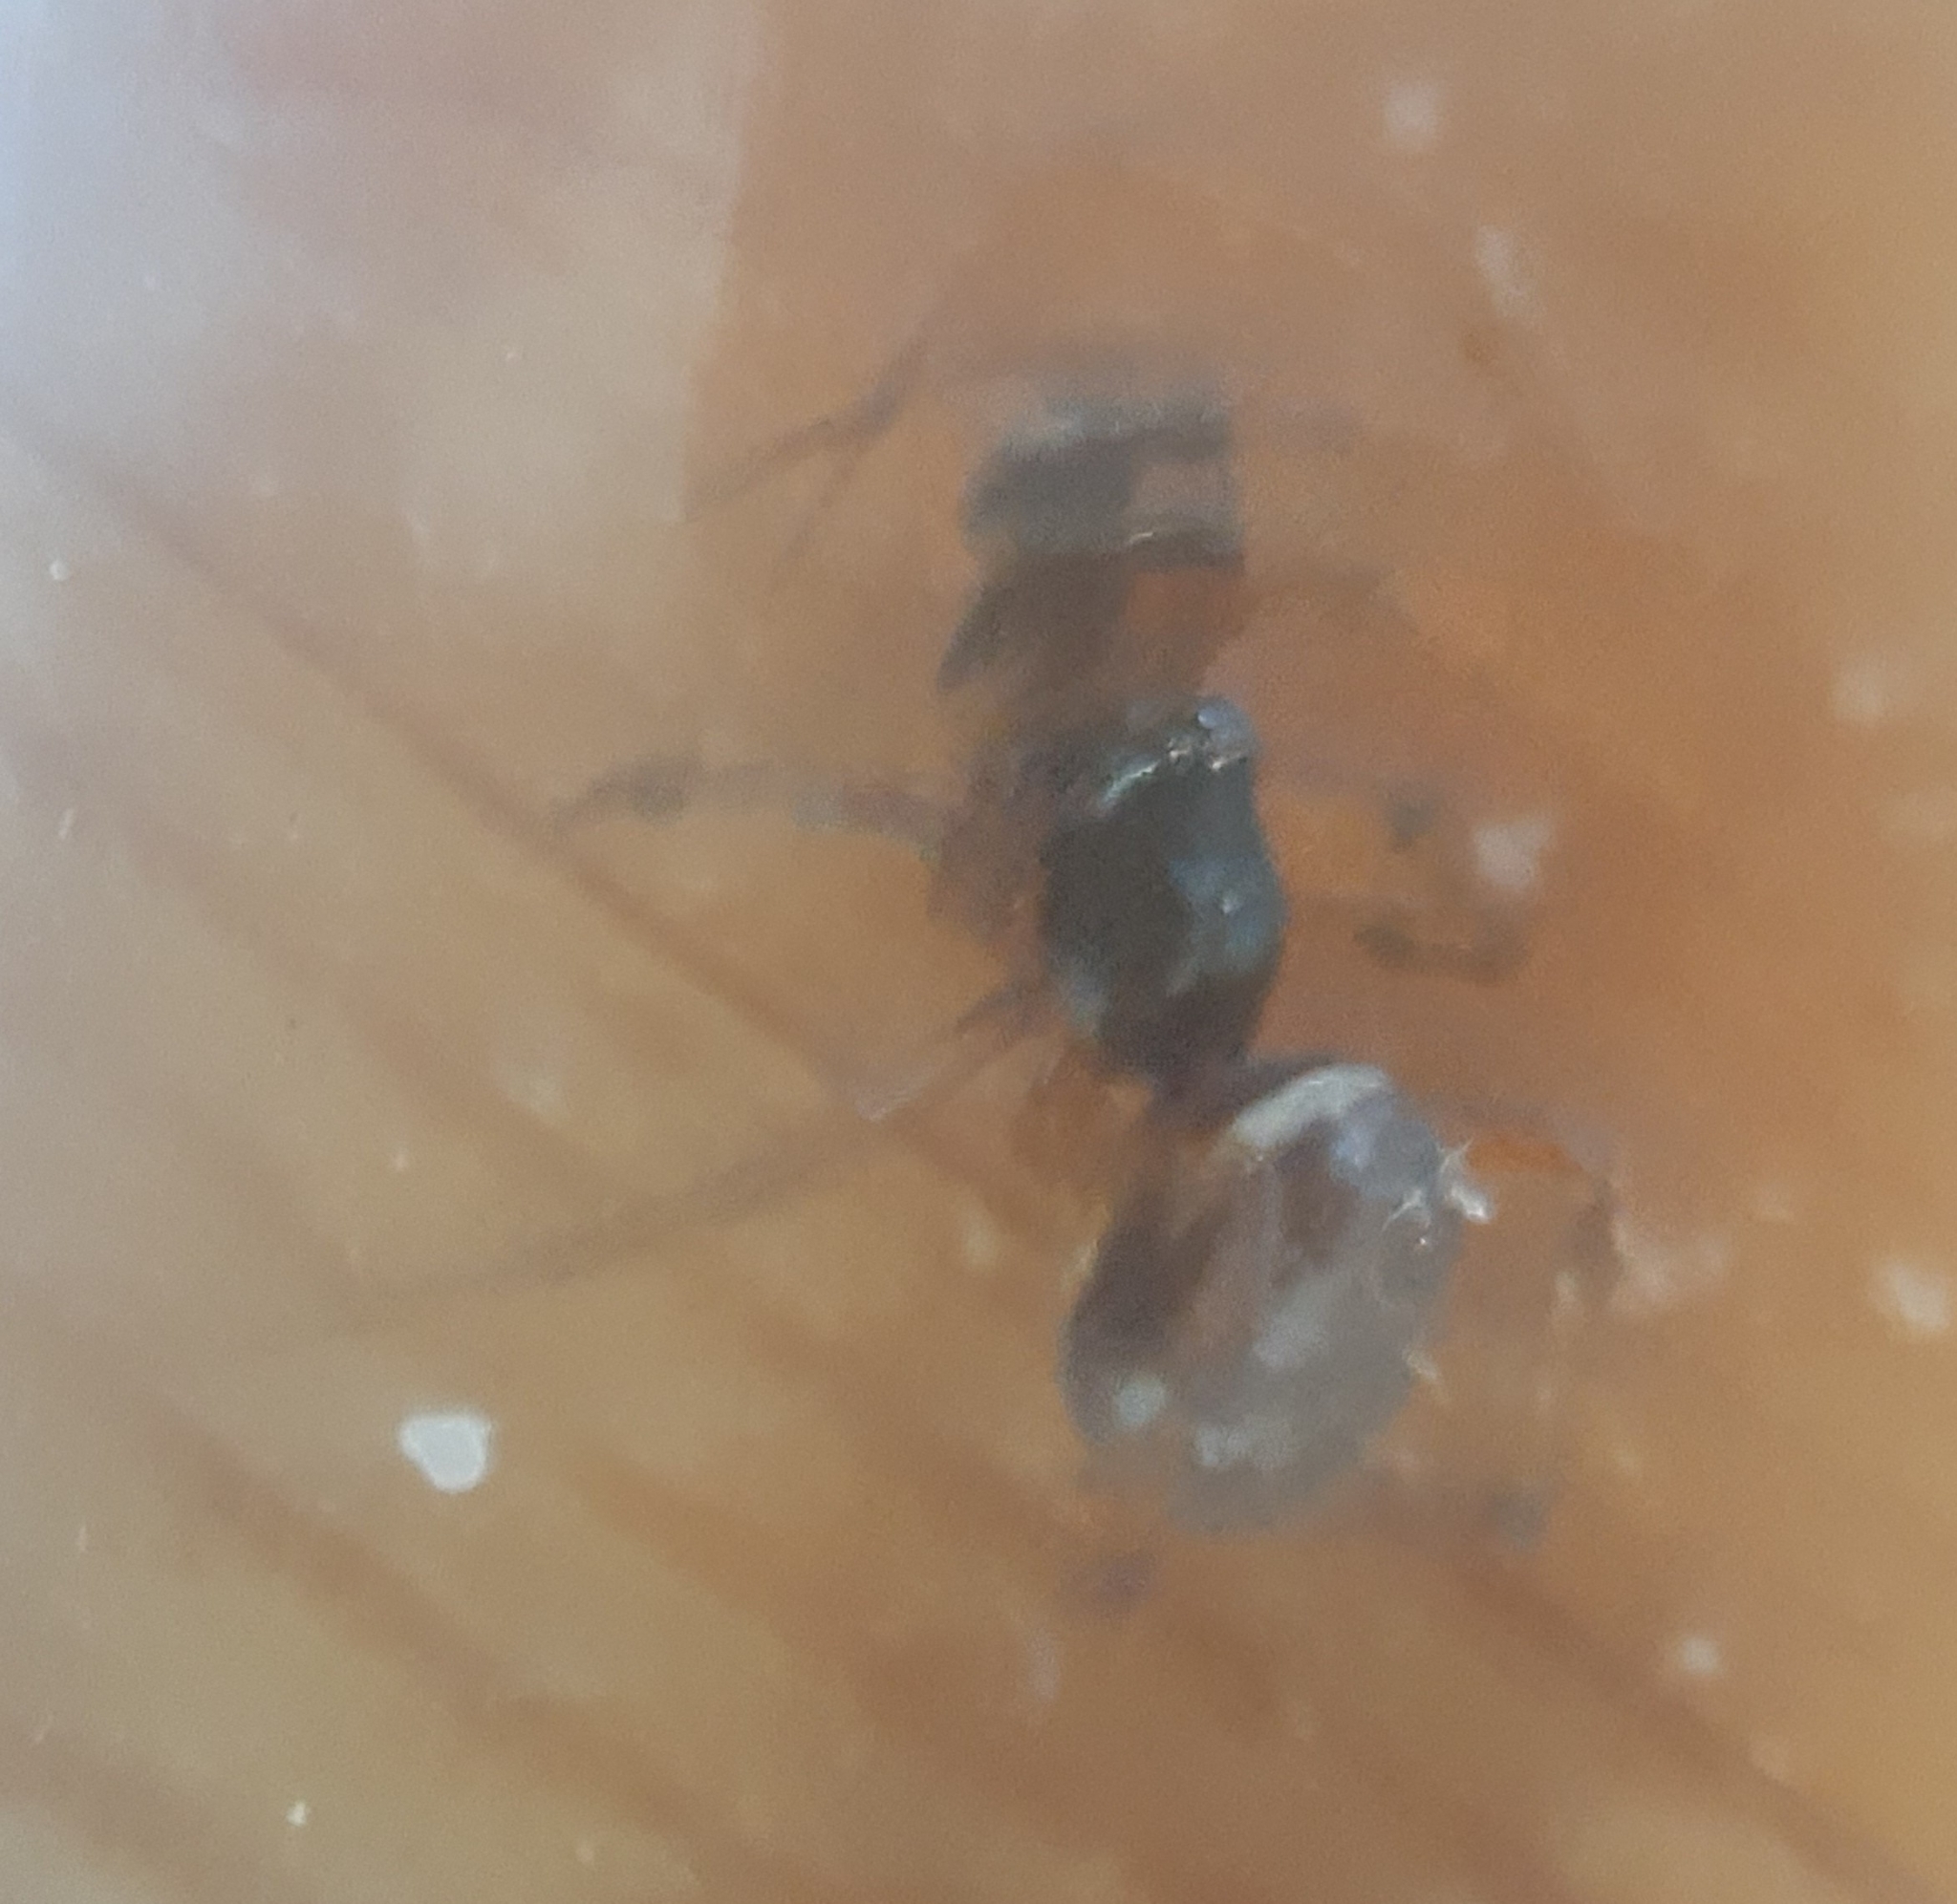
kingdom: Animalia
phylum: Arthropoda
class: Arachnida
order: Araneae
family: Theridiidae
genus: Steatoda
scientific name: Steatoda bipunctata
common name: False widow
